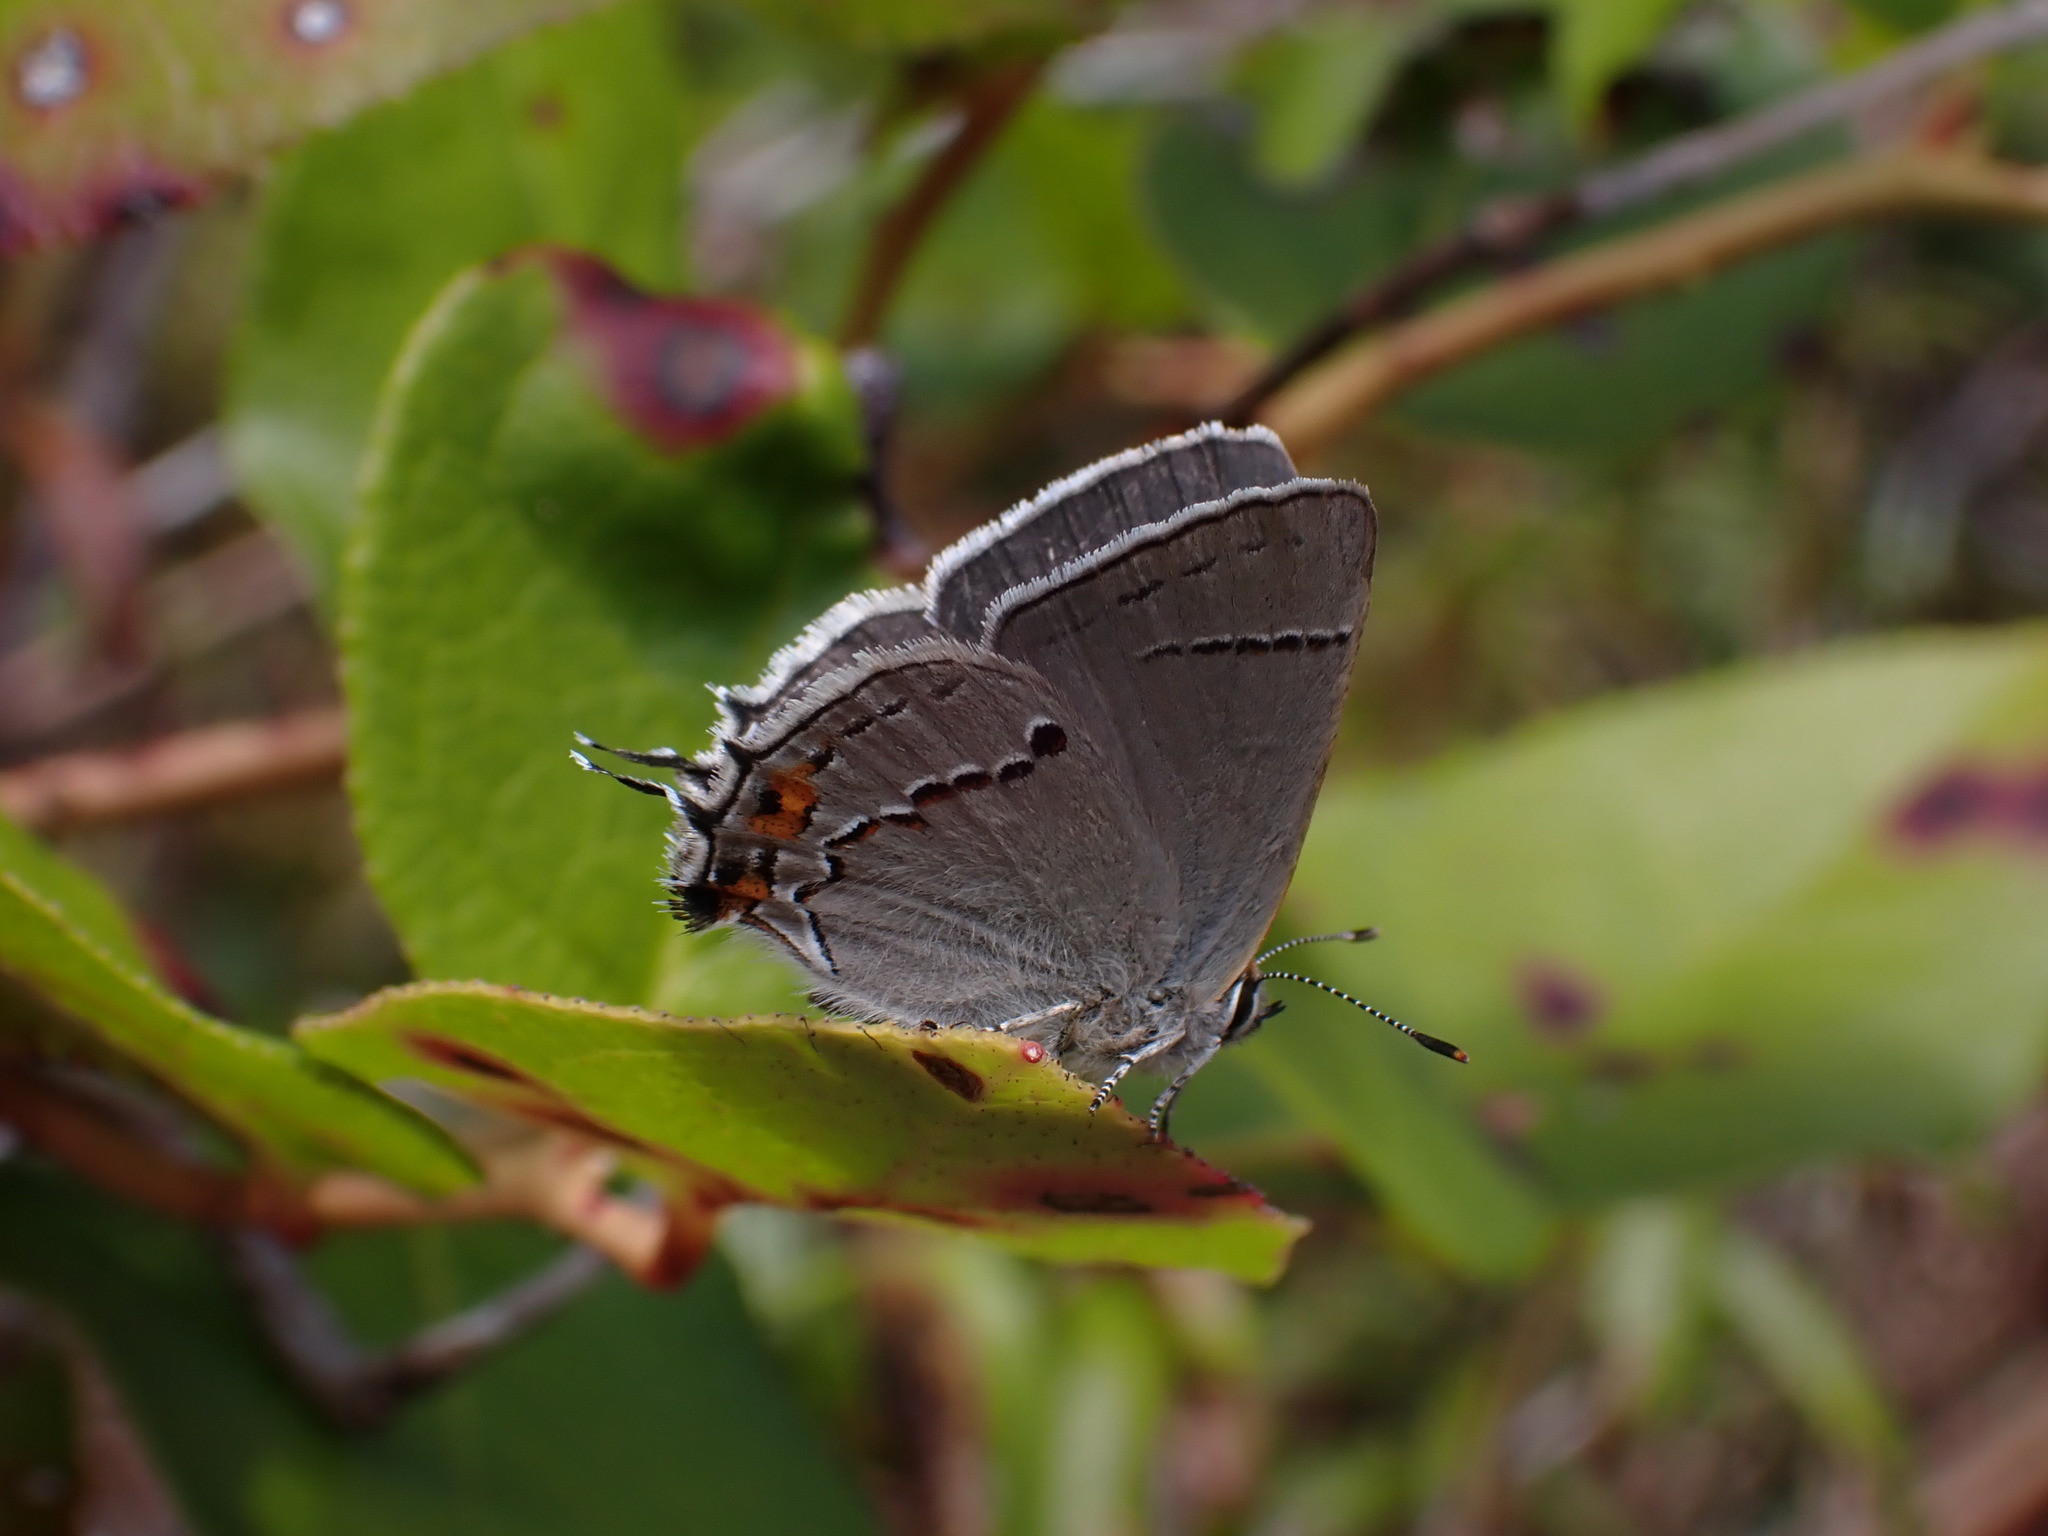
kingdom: Animalia
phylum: Arthropoda
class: Insecta
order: Lepidoptera
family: Lycaenidae
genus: Strymon
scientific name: Strymon melinus
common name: Gray hairstreak
